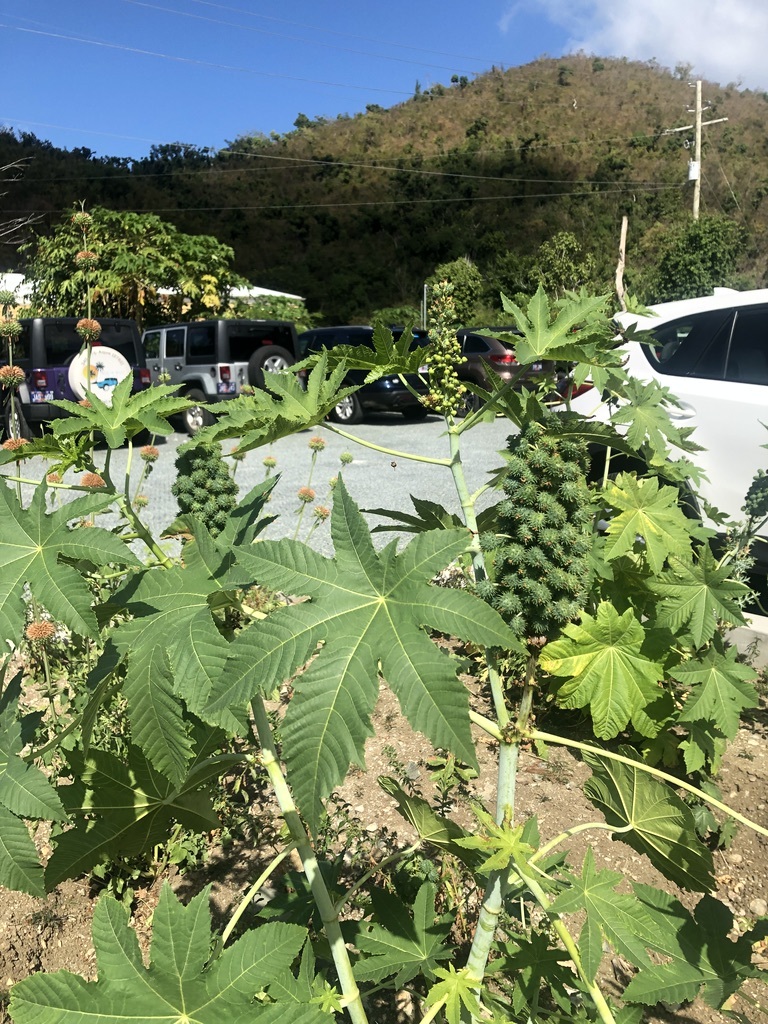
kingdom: Plantae
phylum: Tracheophyta
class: Magnoliopsida
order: Malpighiales
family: Euphorbiaceae
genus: Ricinus
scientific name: Ricinus communis
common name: Castor-oil-plant
